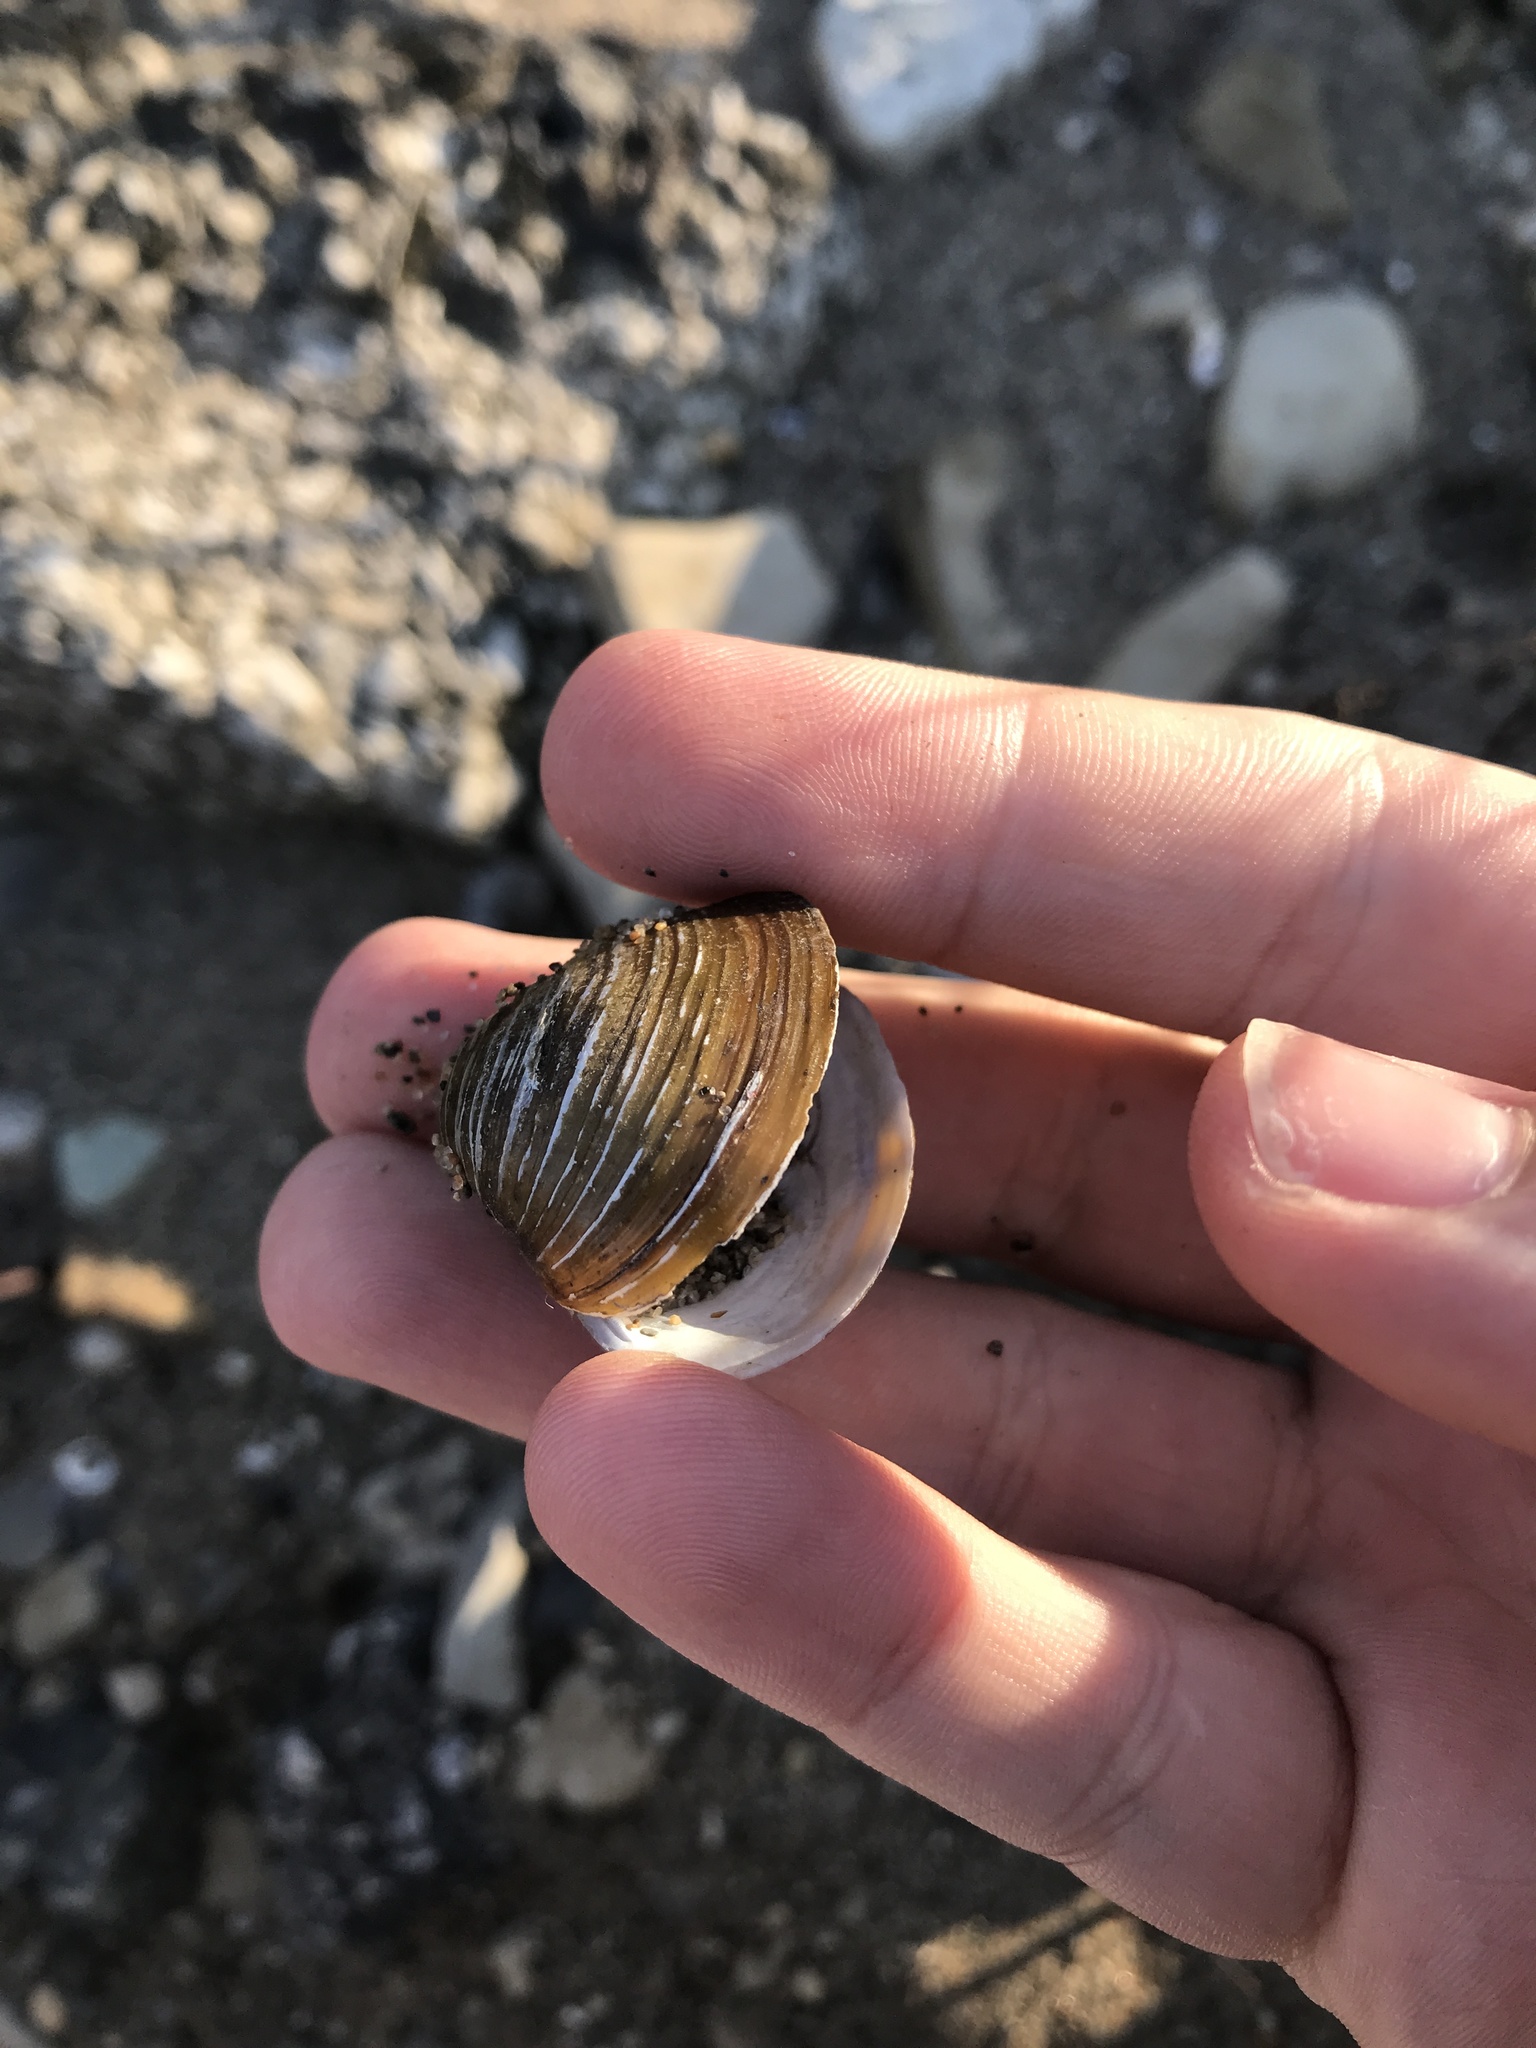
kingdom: Animalia
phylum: Mollusca
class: Bivalvia
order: Venerida
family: Cyrenidae
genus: Corbicula
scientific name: Corbicula fluminea
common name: Asian clam
